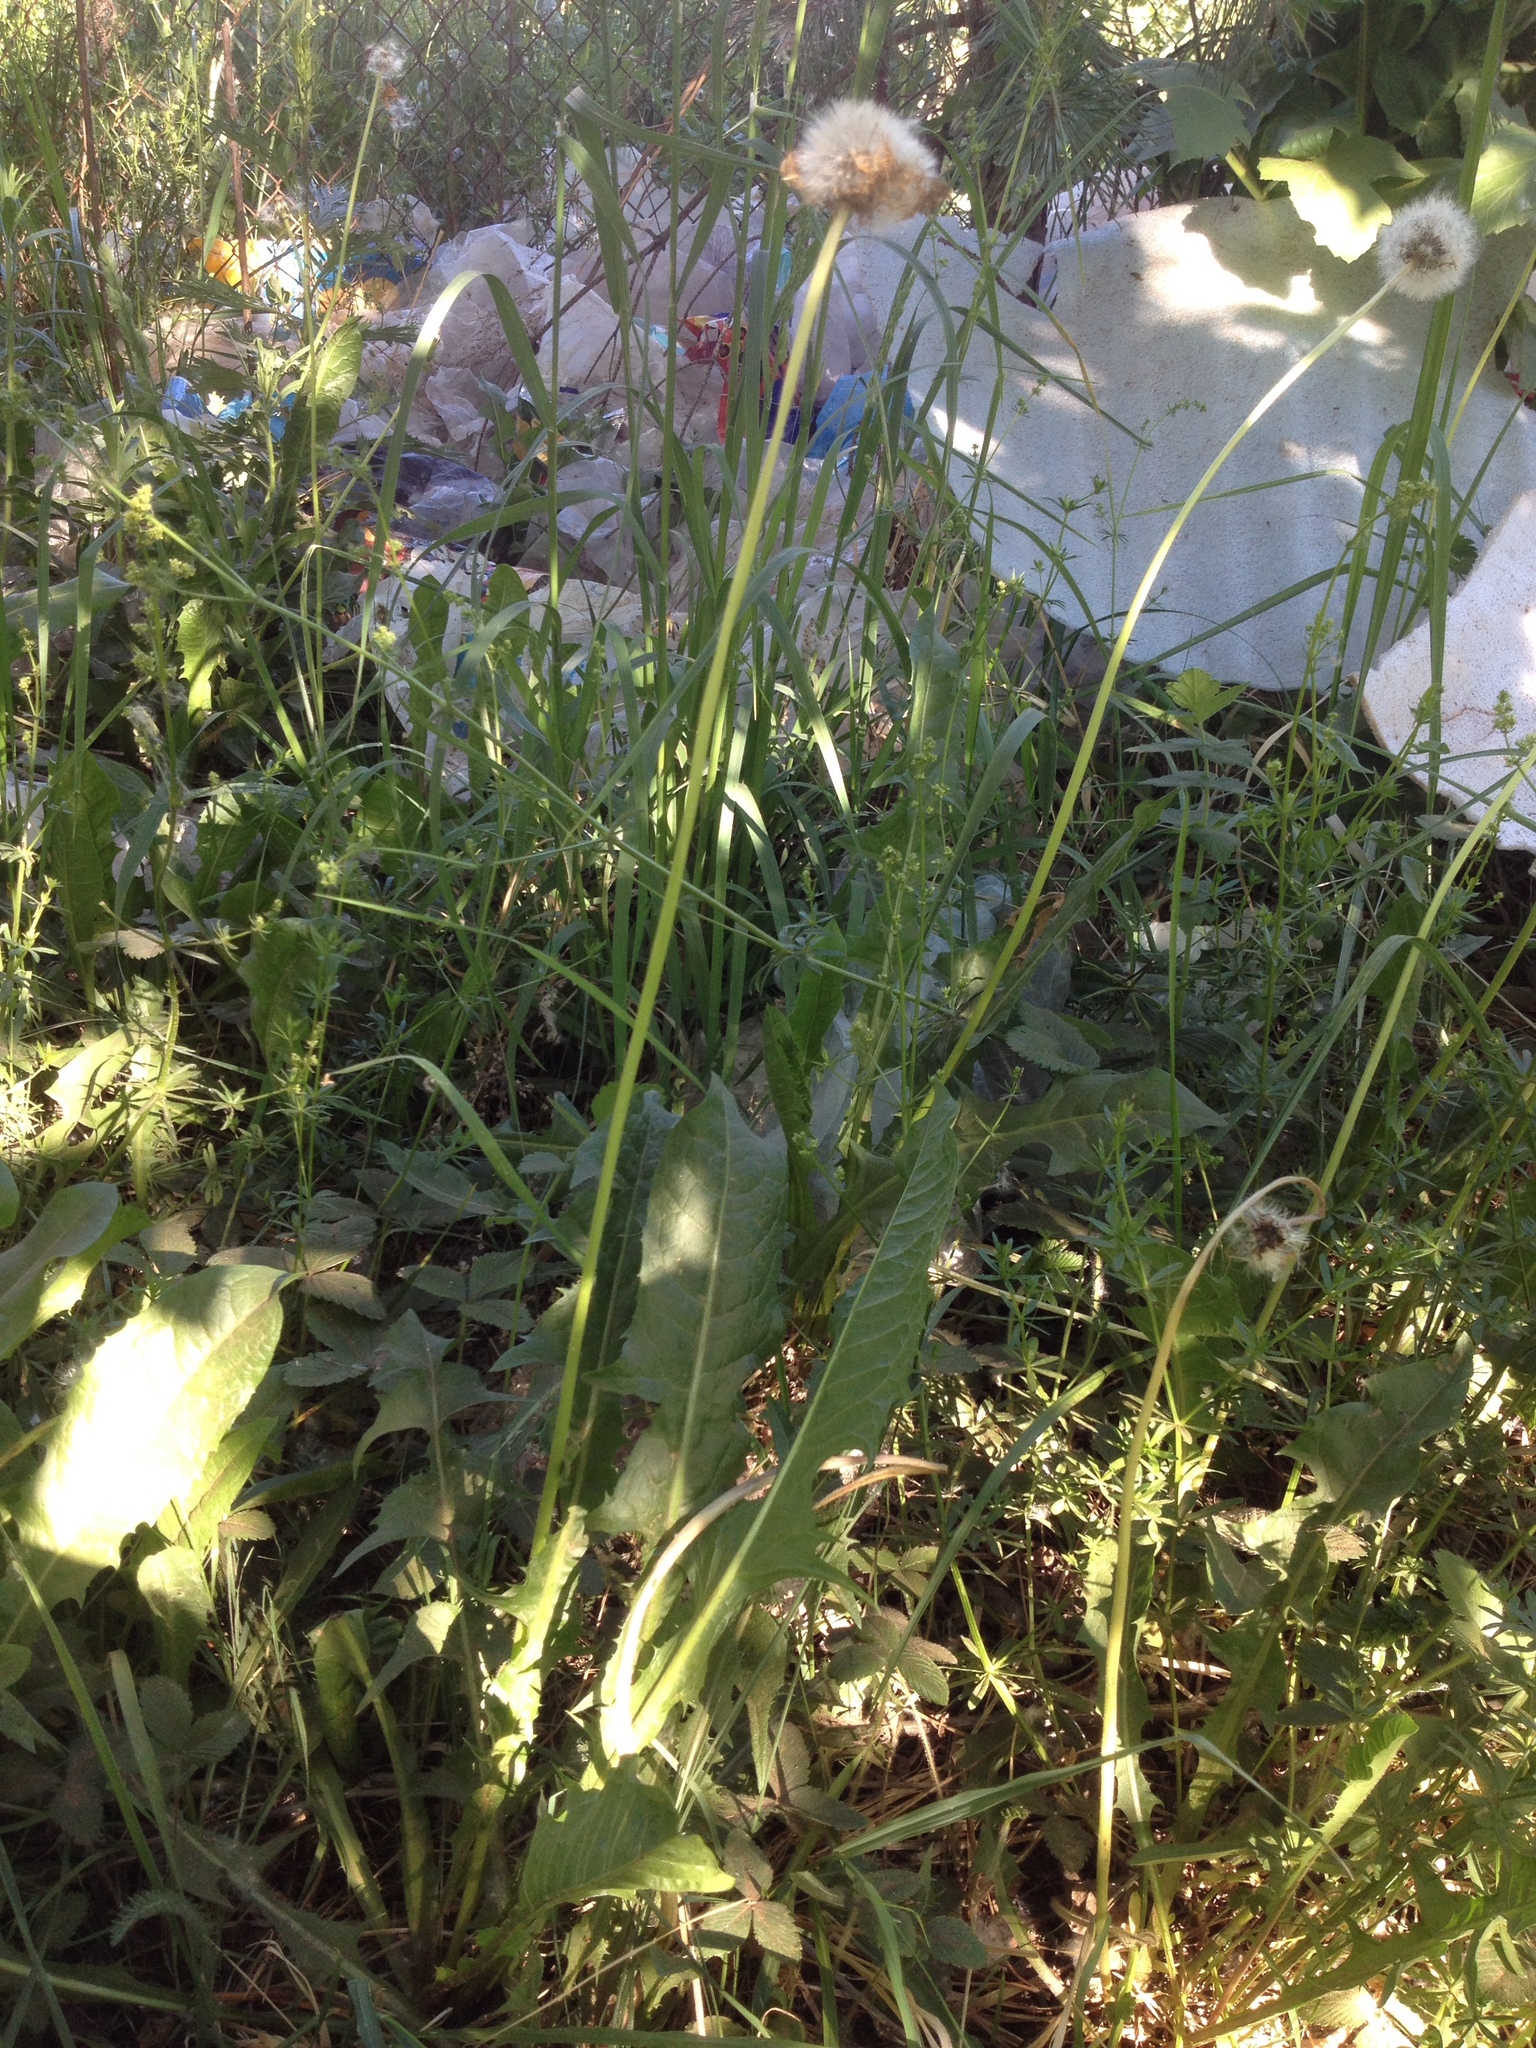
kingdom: Plantae
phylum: Tracheophyta
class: Magnoliopsida
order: Asterales
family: Asteraceae
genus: Taraxacum
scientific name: Taraxacum officinale
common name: Common dandelion
